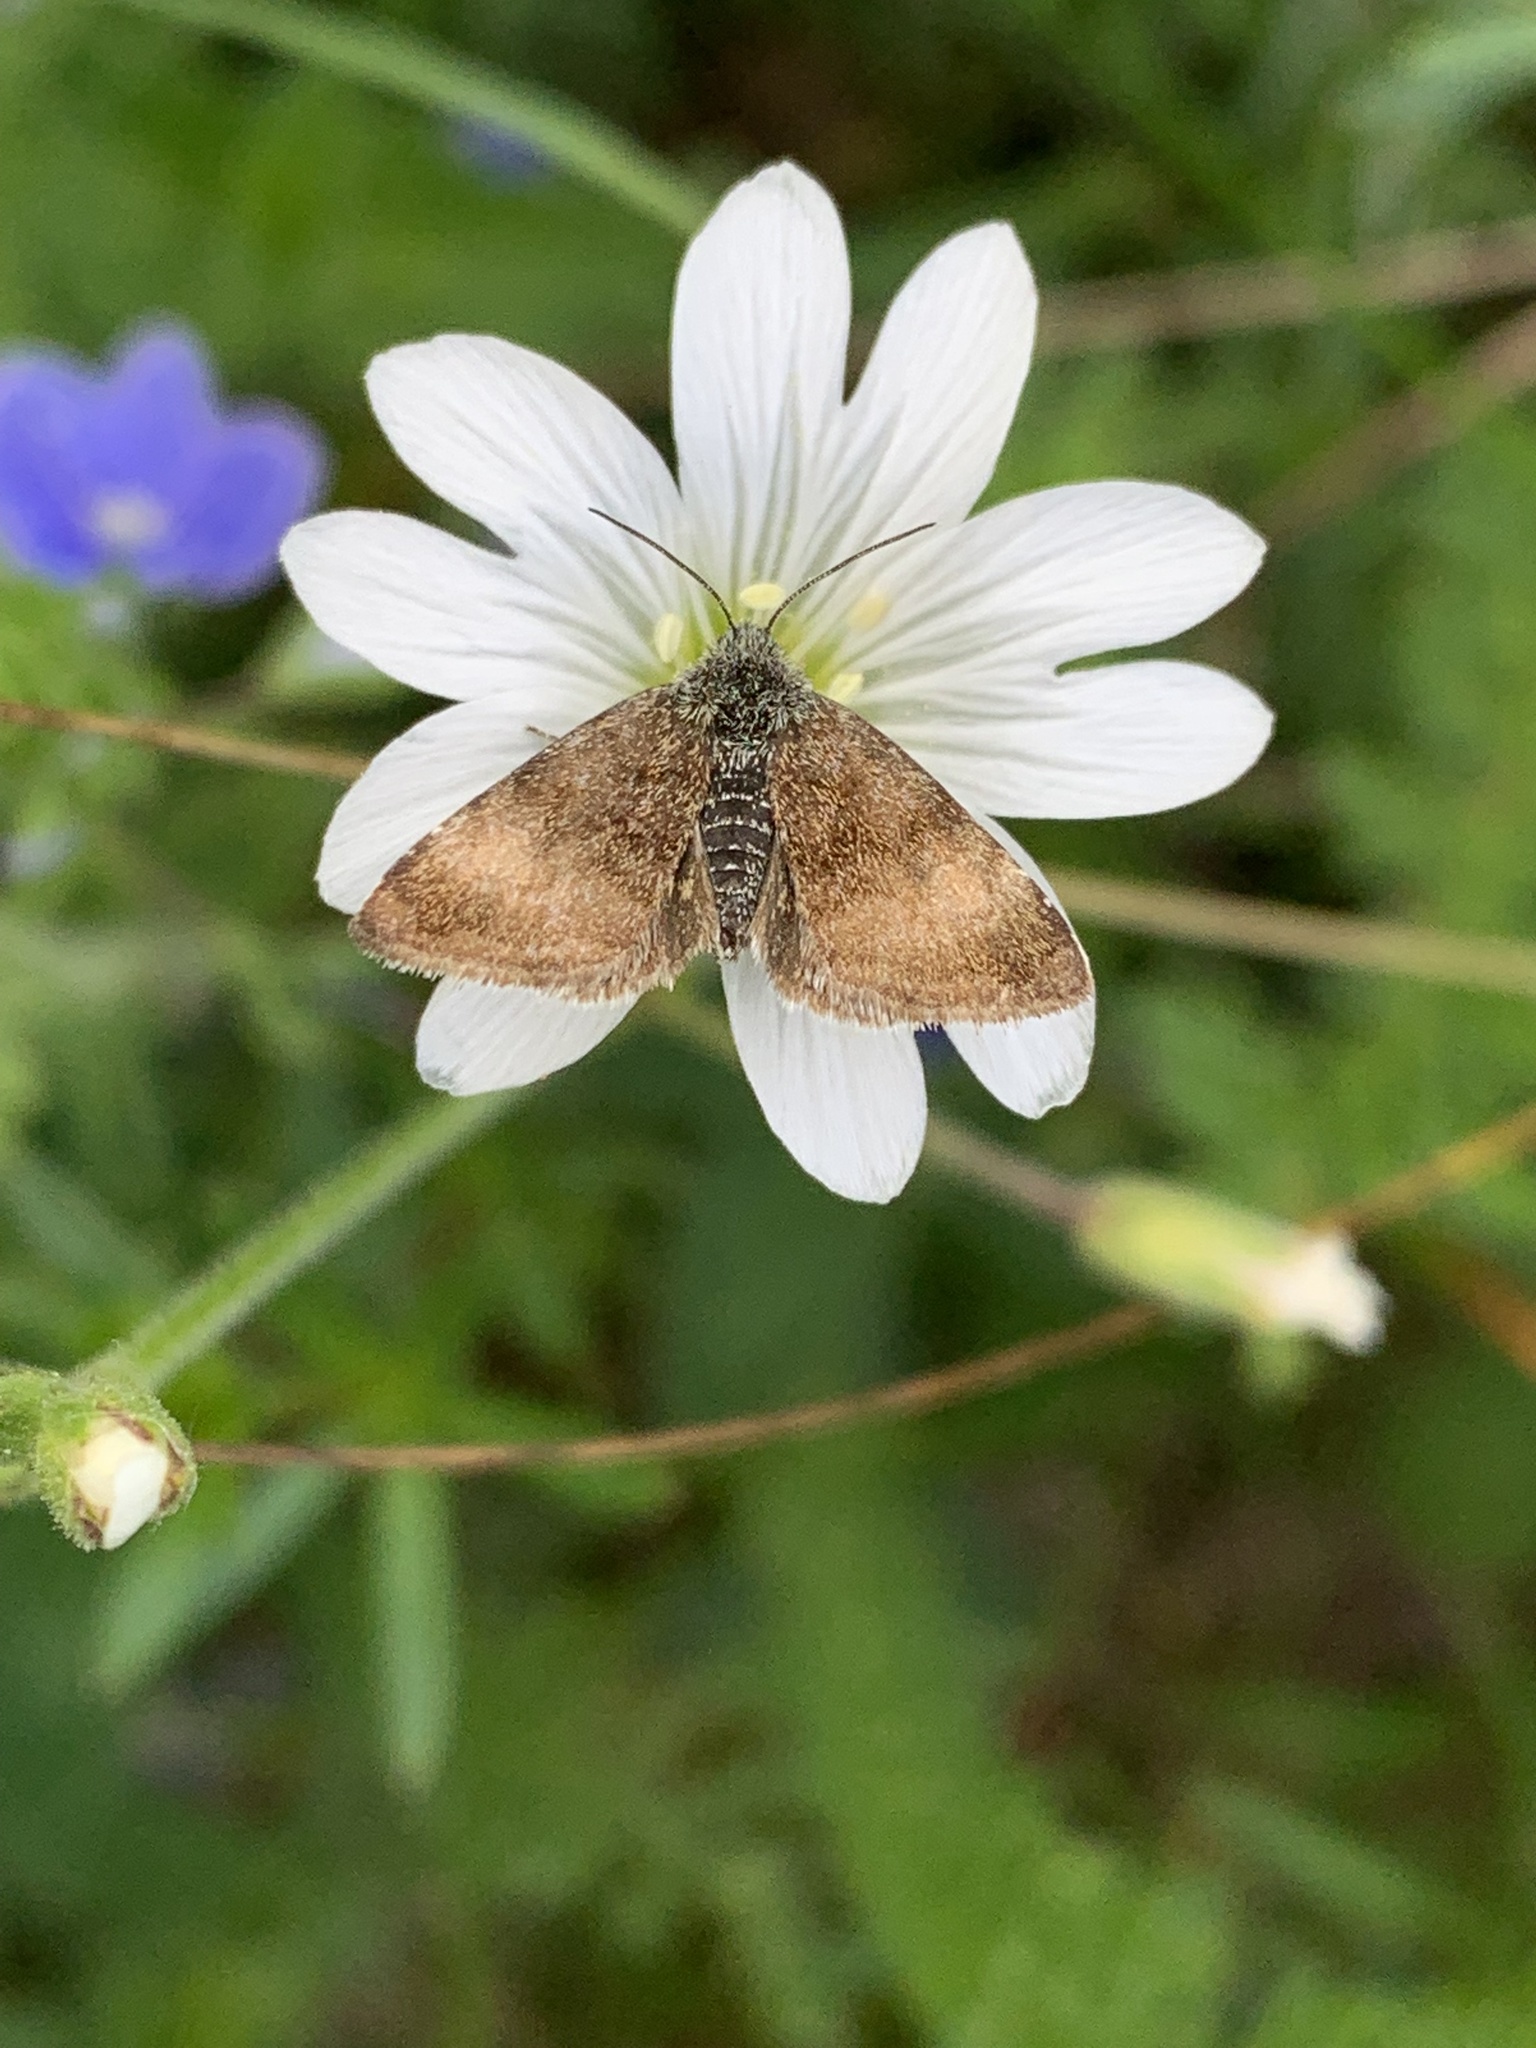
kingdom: Animalia
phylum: Arthropoda
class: Insecta
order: Lepidoptera
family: Noctuidae
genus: Panemeria
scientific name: Panemeria tenebrata
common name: Small yellow underwing
